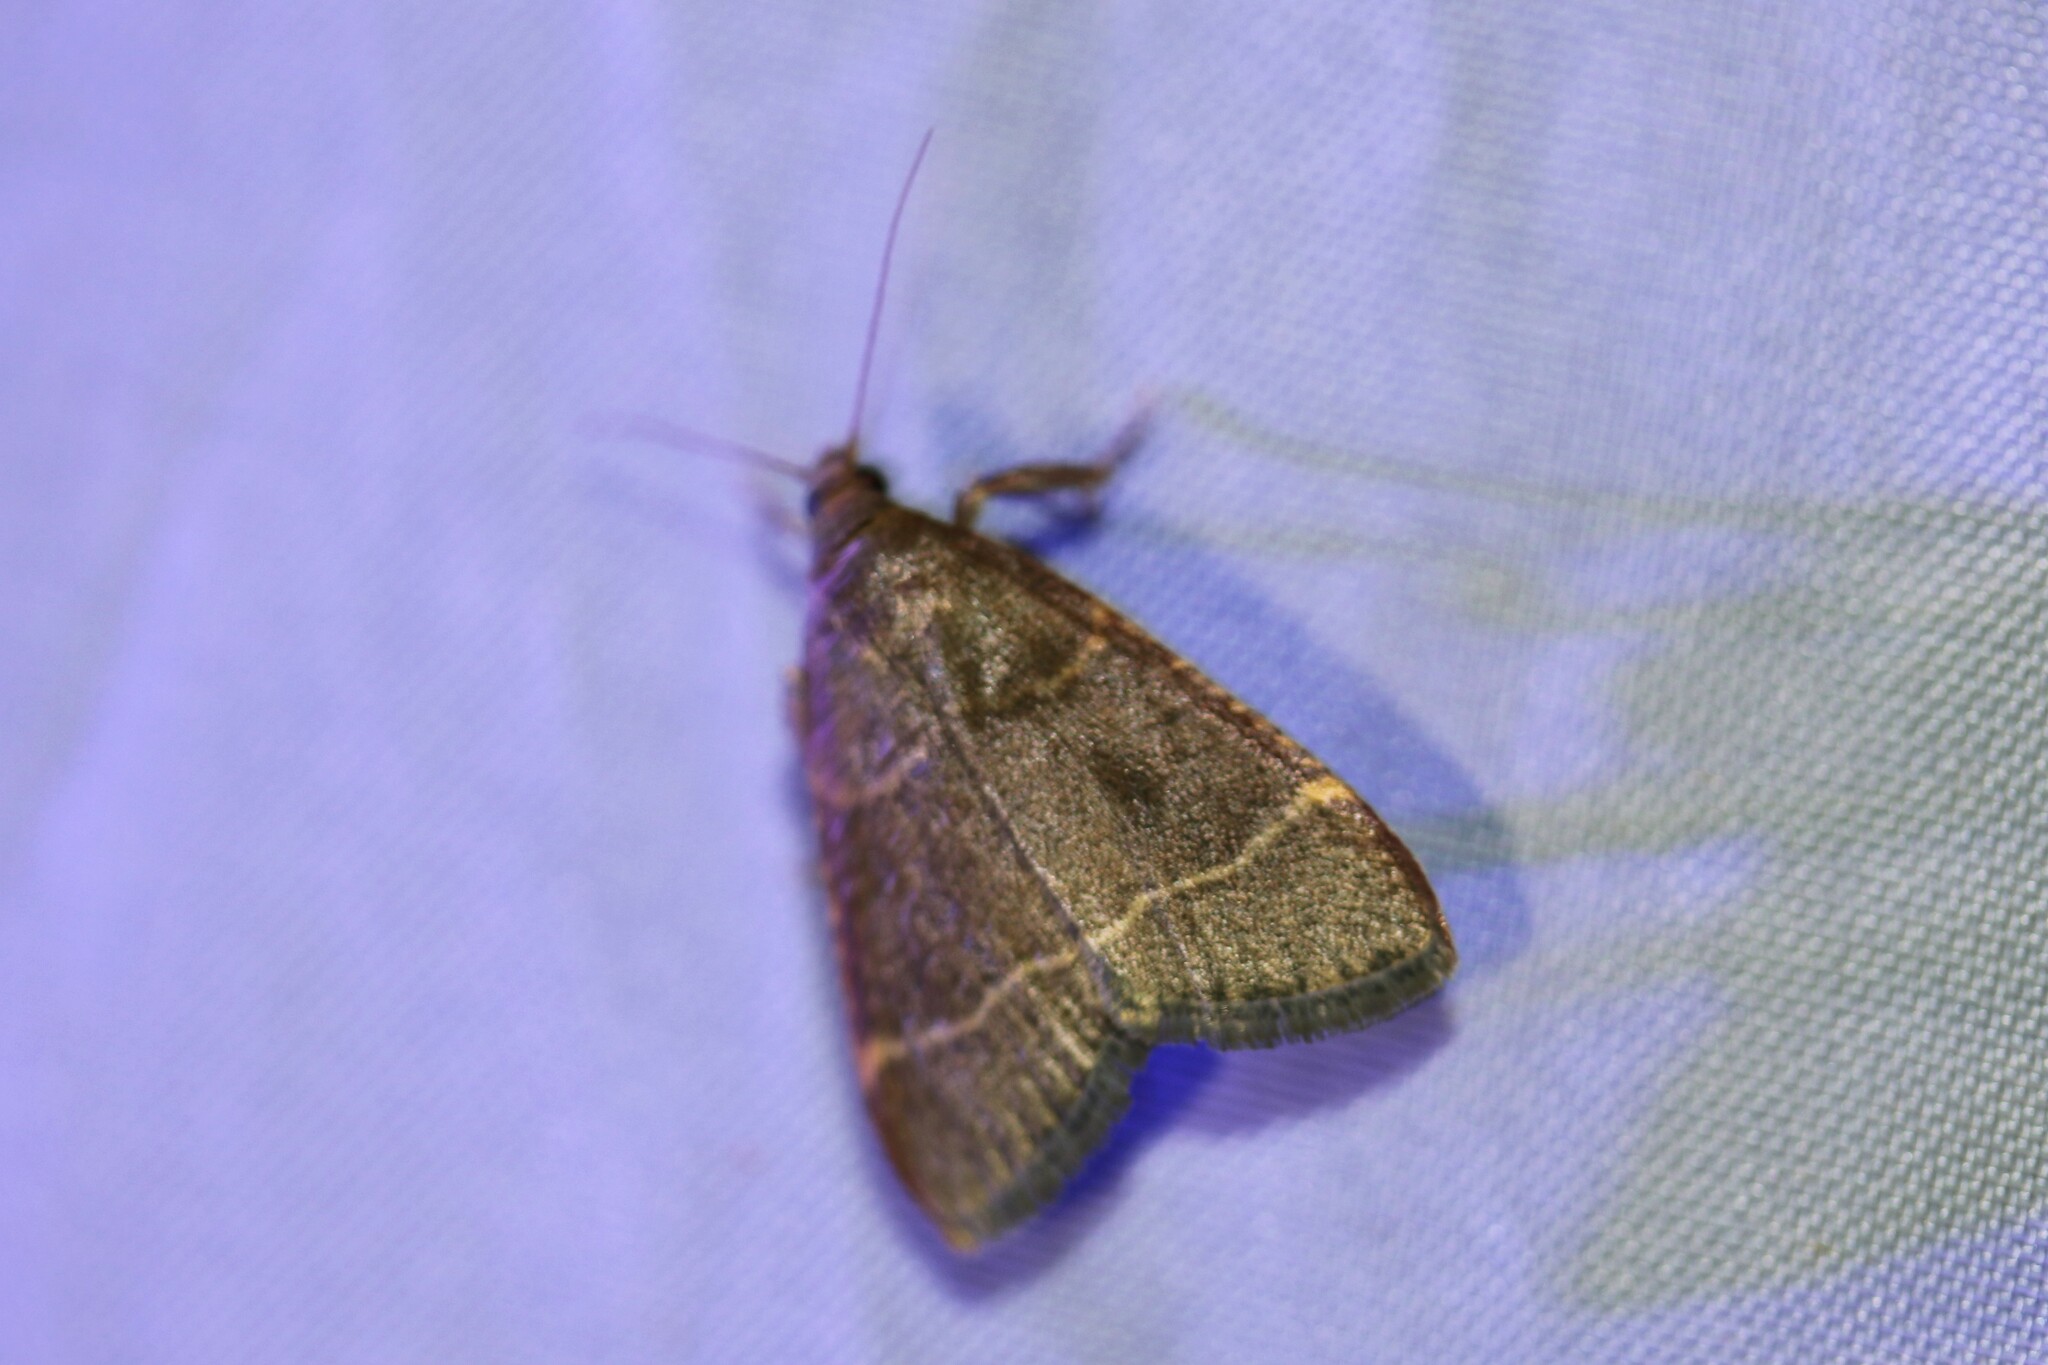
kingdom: Animalia
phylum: Arthropoda
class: Insecta
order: Lepidoptera
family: Pyralidae
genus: Hypsopygia
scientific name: Hypsopygia glaucinalis
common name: Double-striped tabby
